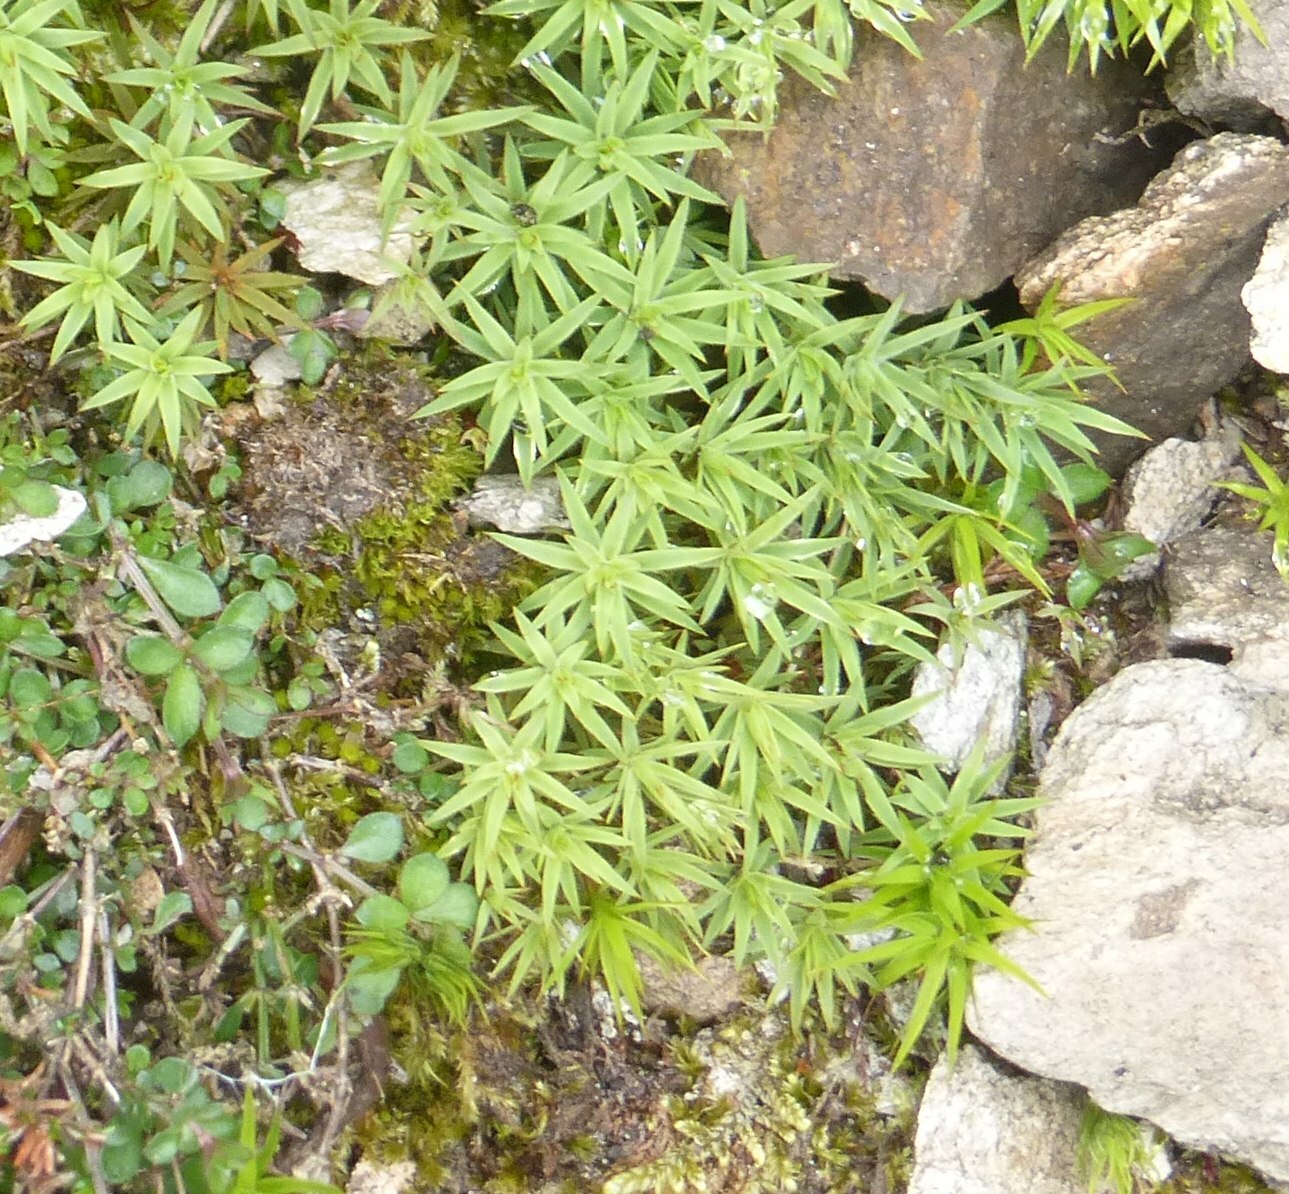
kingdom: Plantae
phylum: Bryophyta
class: Polytrichopsida
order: Polytrichales
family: Polytrichaceae
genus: Pogonatum
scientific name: Pogonatum urnigerum
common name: Urn hair moss
